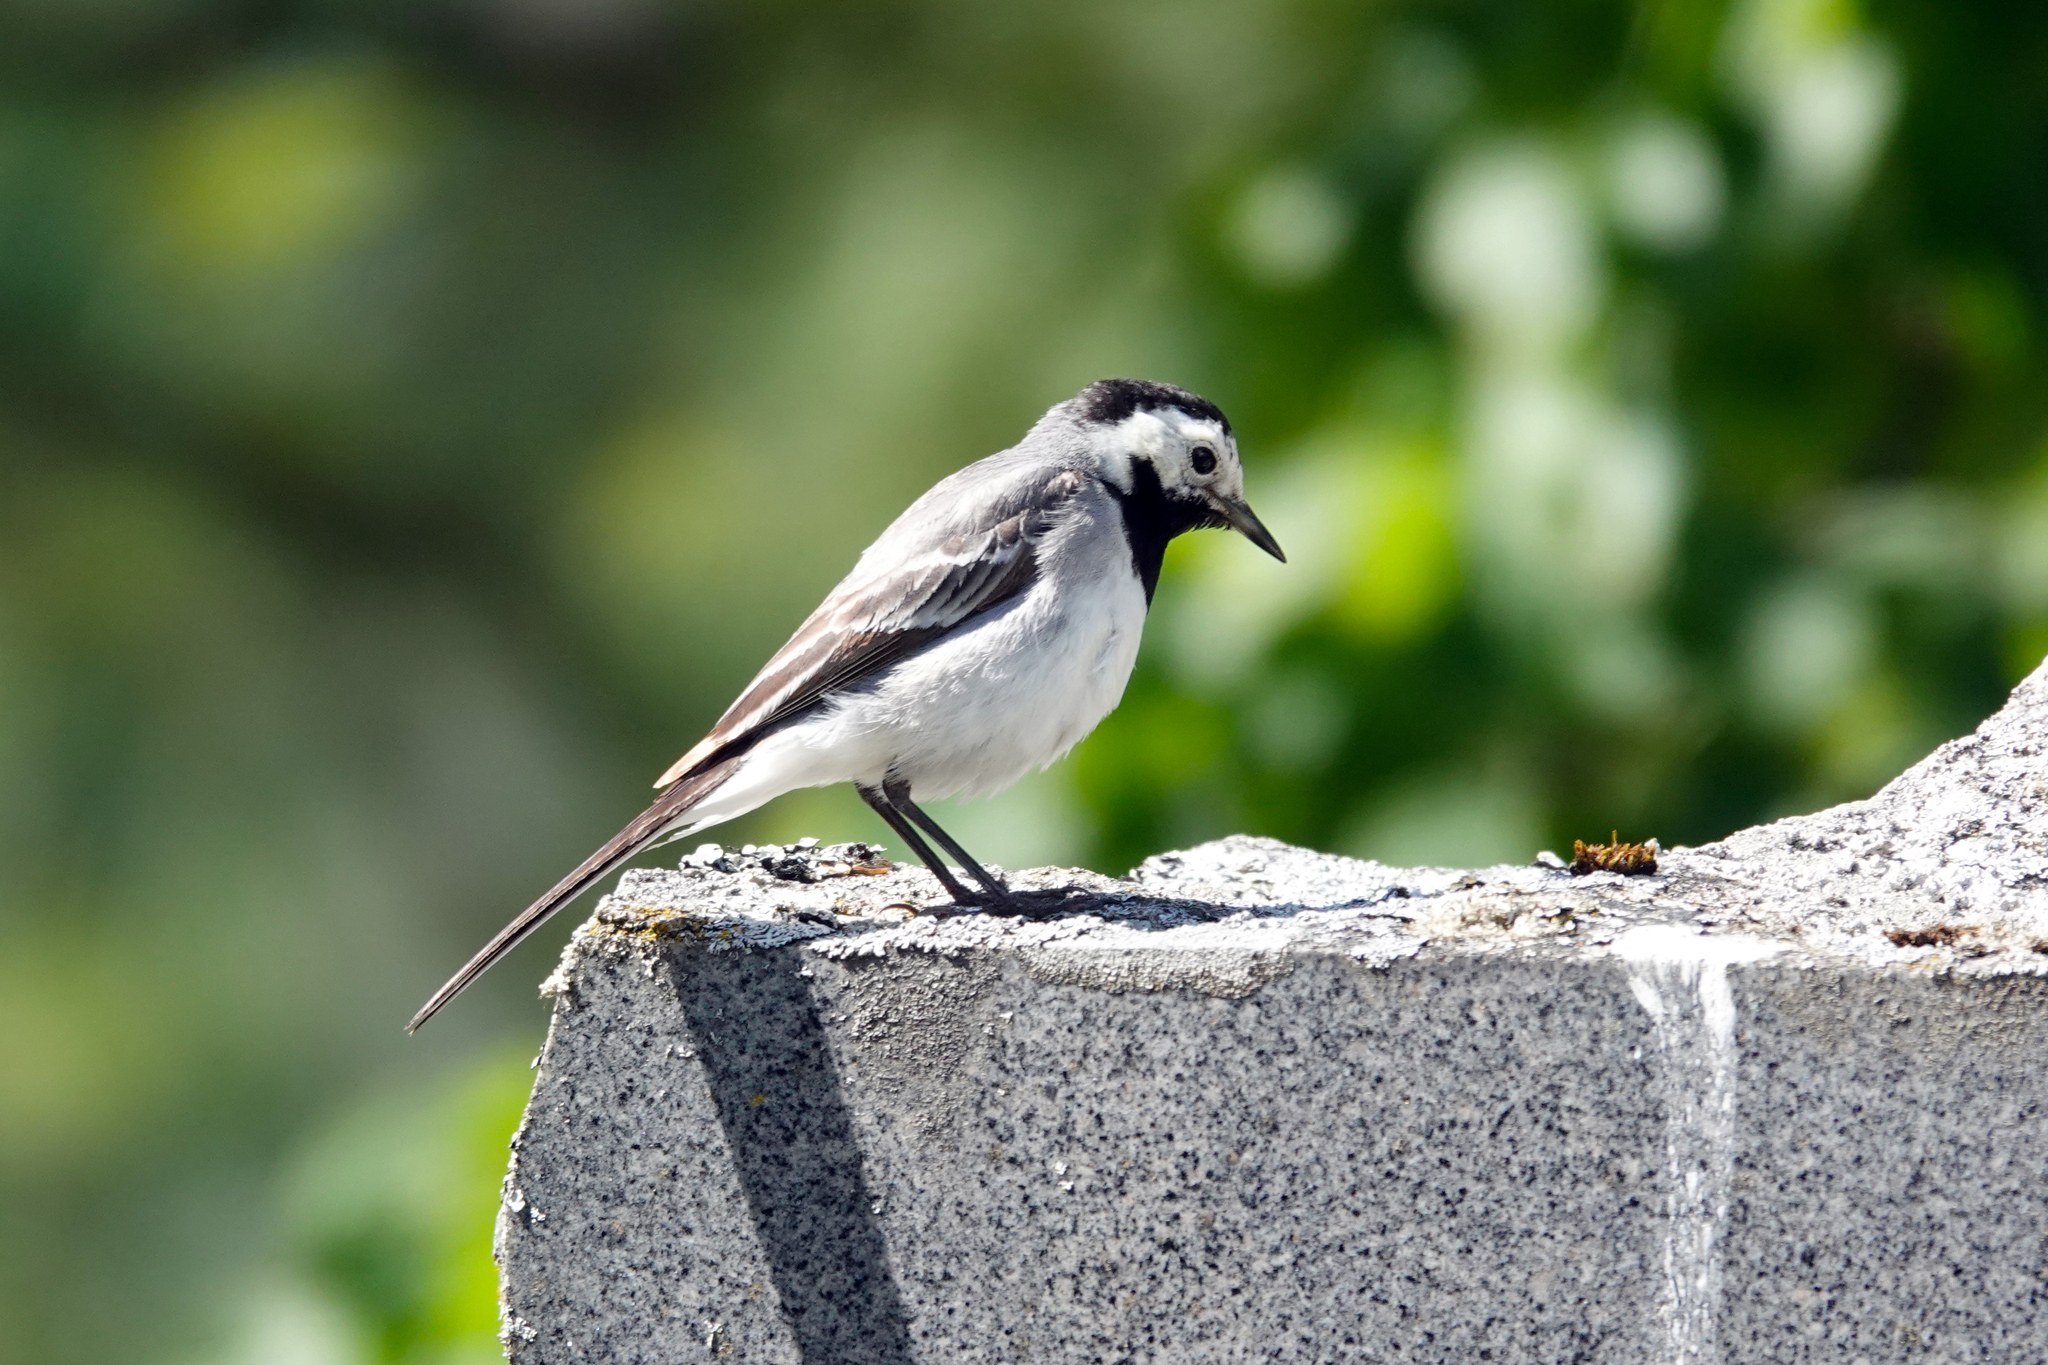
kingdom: Animalia
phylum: Chordata
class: Aves
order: Passeriformes
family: Motacillidae
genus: Motacilla
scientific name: Motacilla alba
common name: White wagtail
